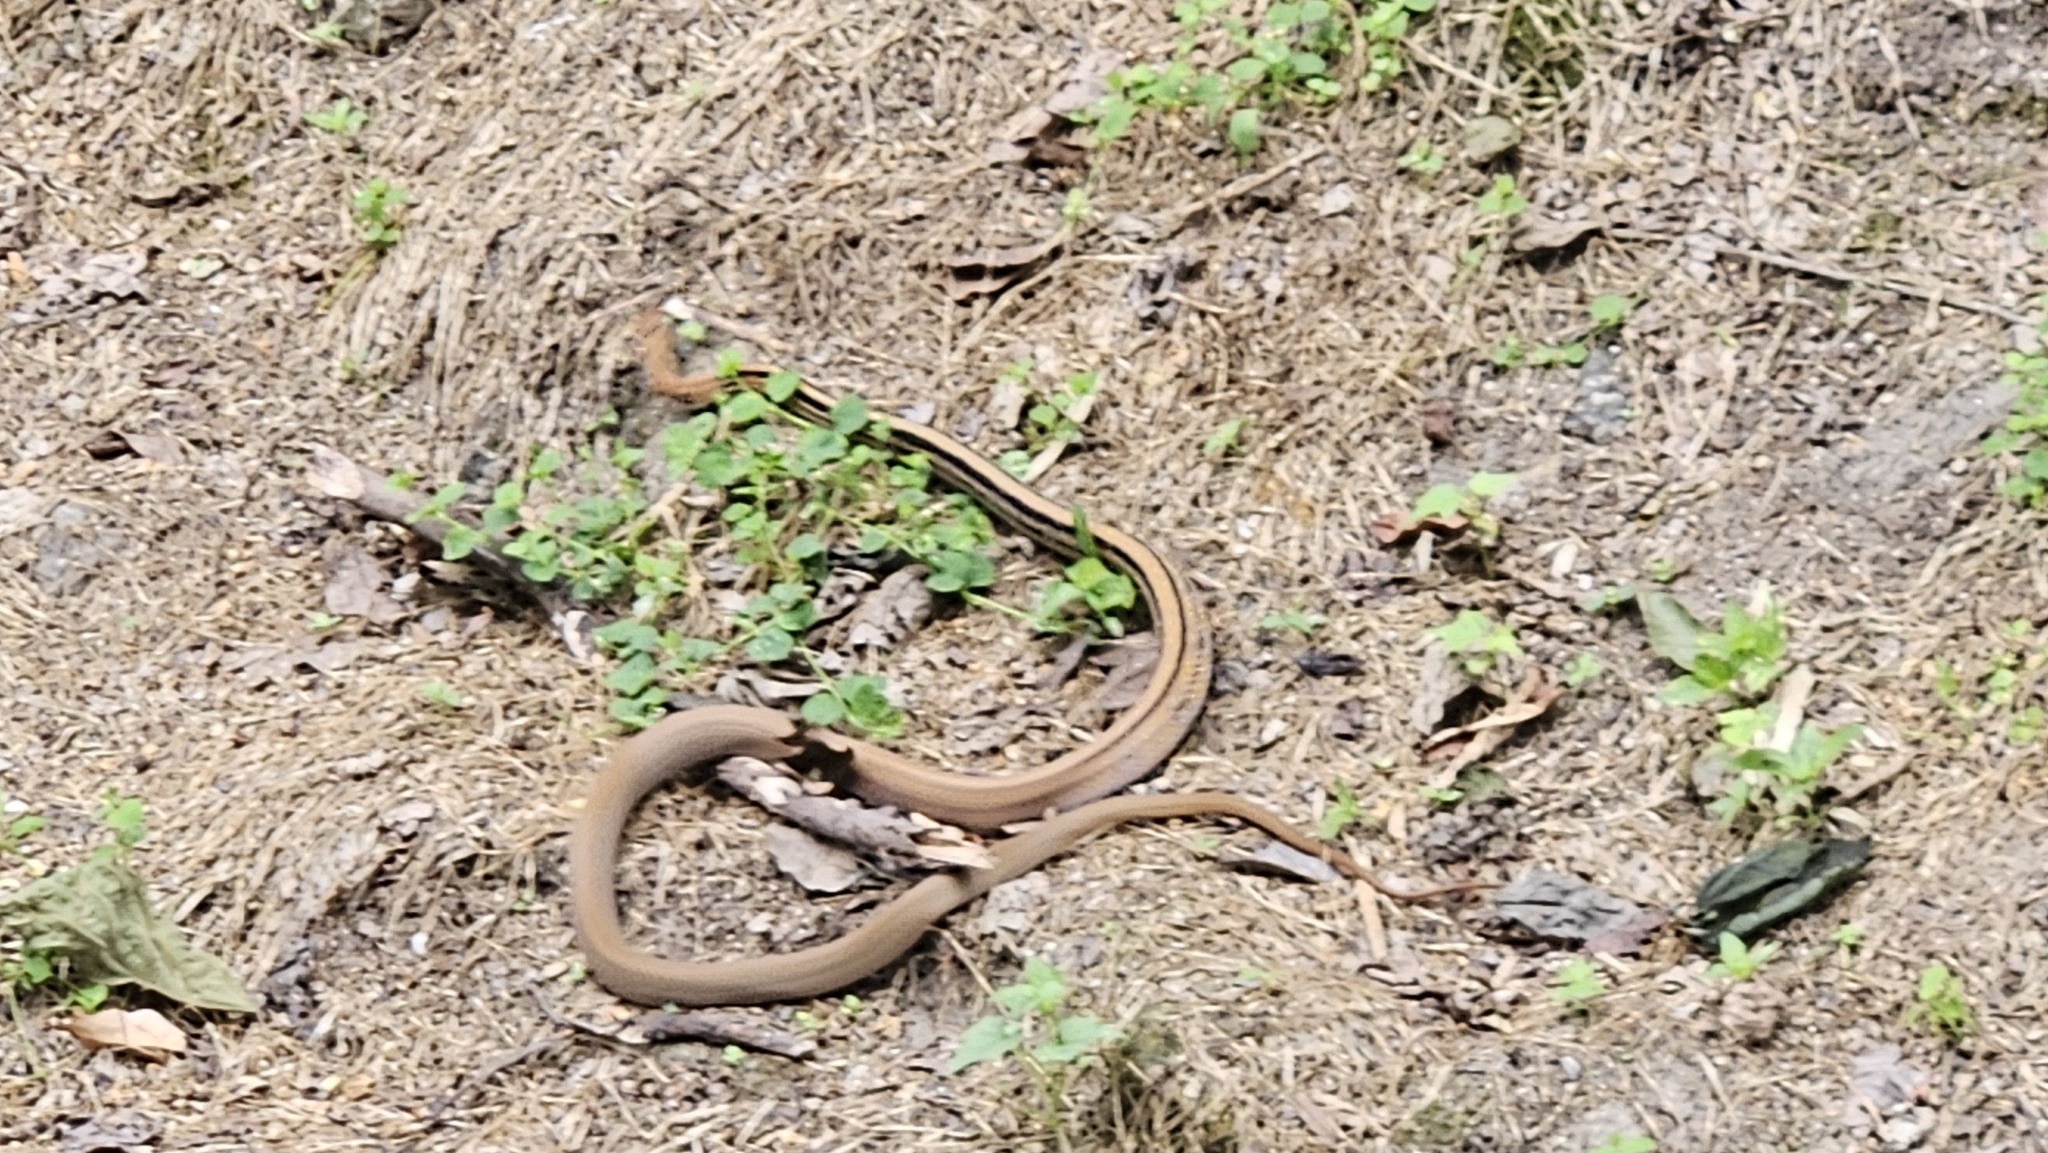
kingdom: Animalia
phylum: Chordata
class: Squamata
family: Colubridae
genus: Coelognathus
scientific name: Coelognathus radiatus
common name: Copperhead rat snake
